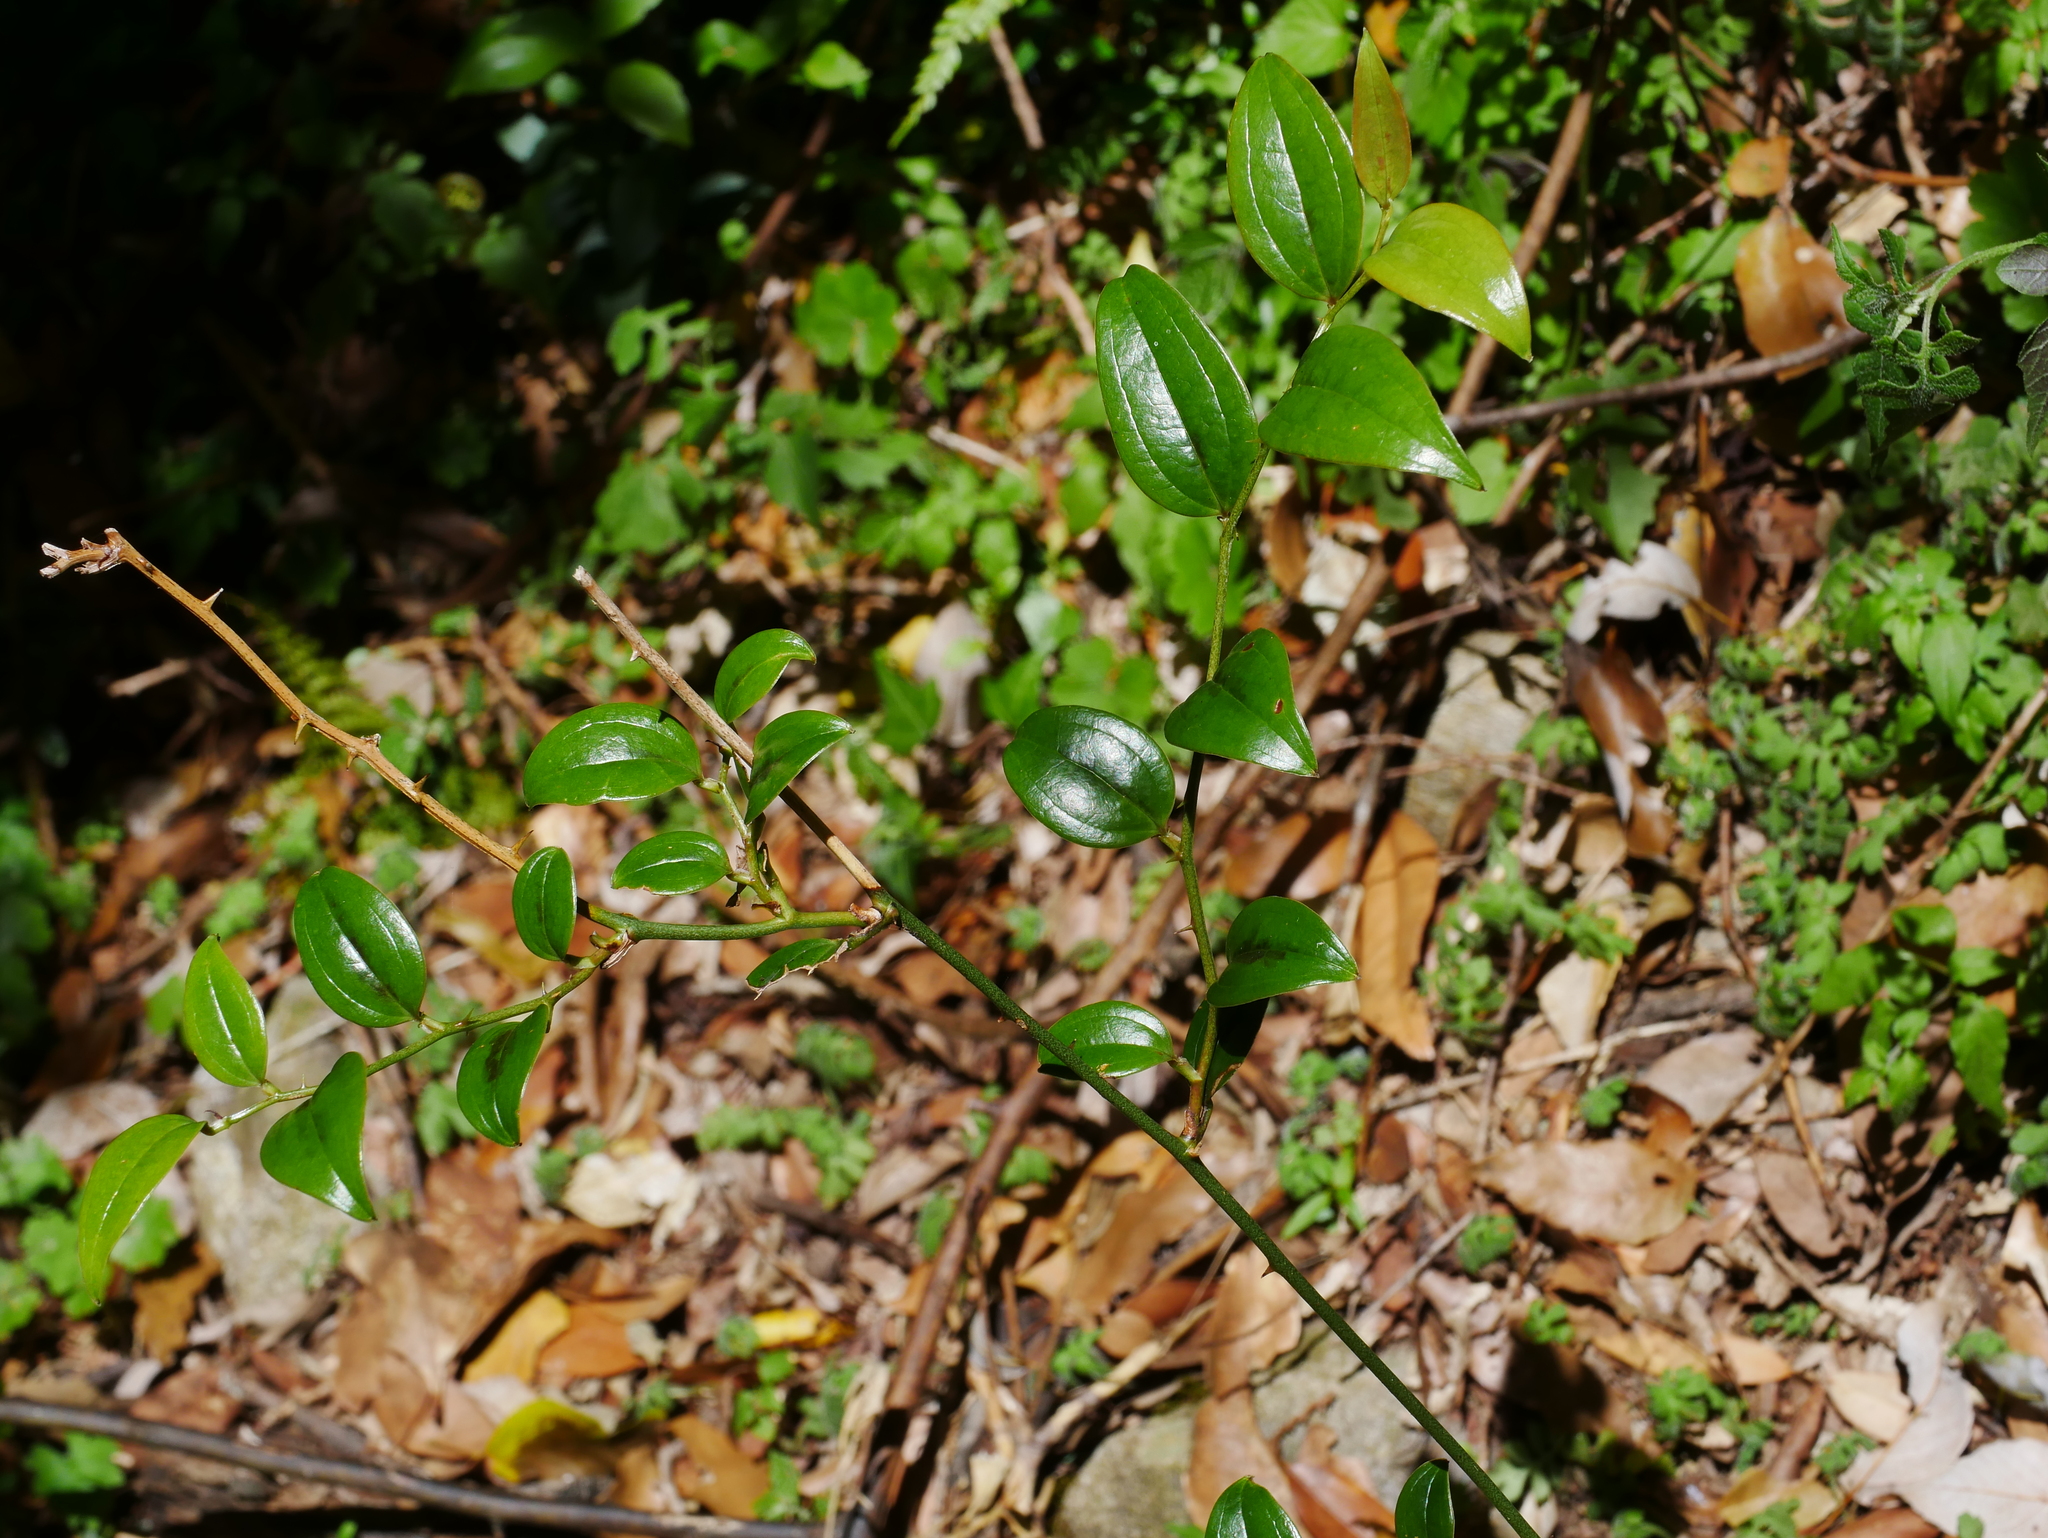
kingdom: Plantae
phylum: Tracheophyta
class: Liliopsida
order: Liliales
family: Smilacaceae
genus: Smilax
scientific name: Smilax vaginata
